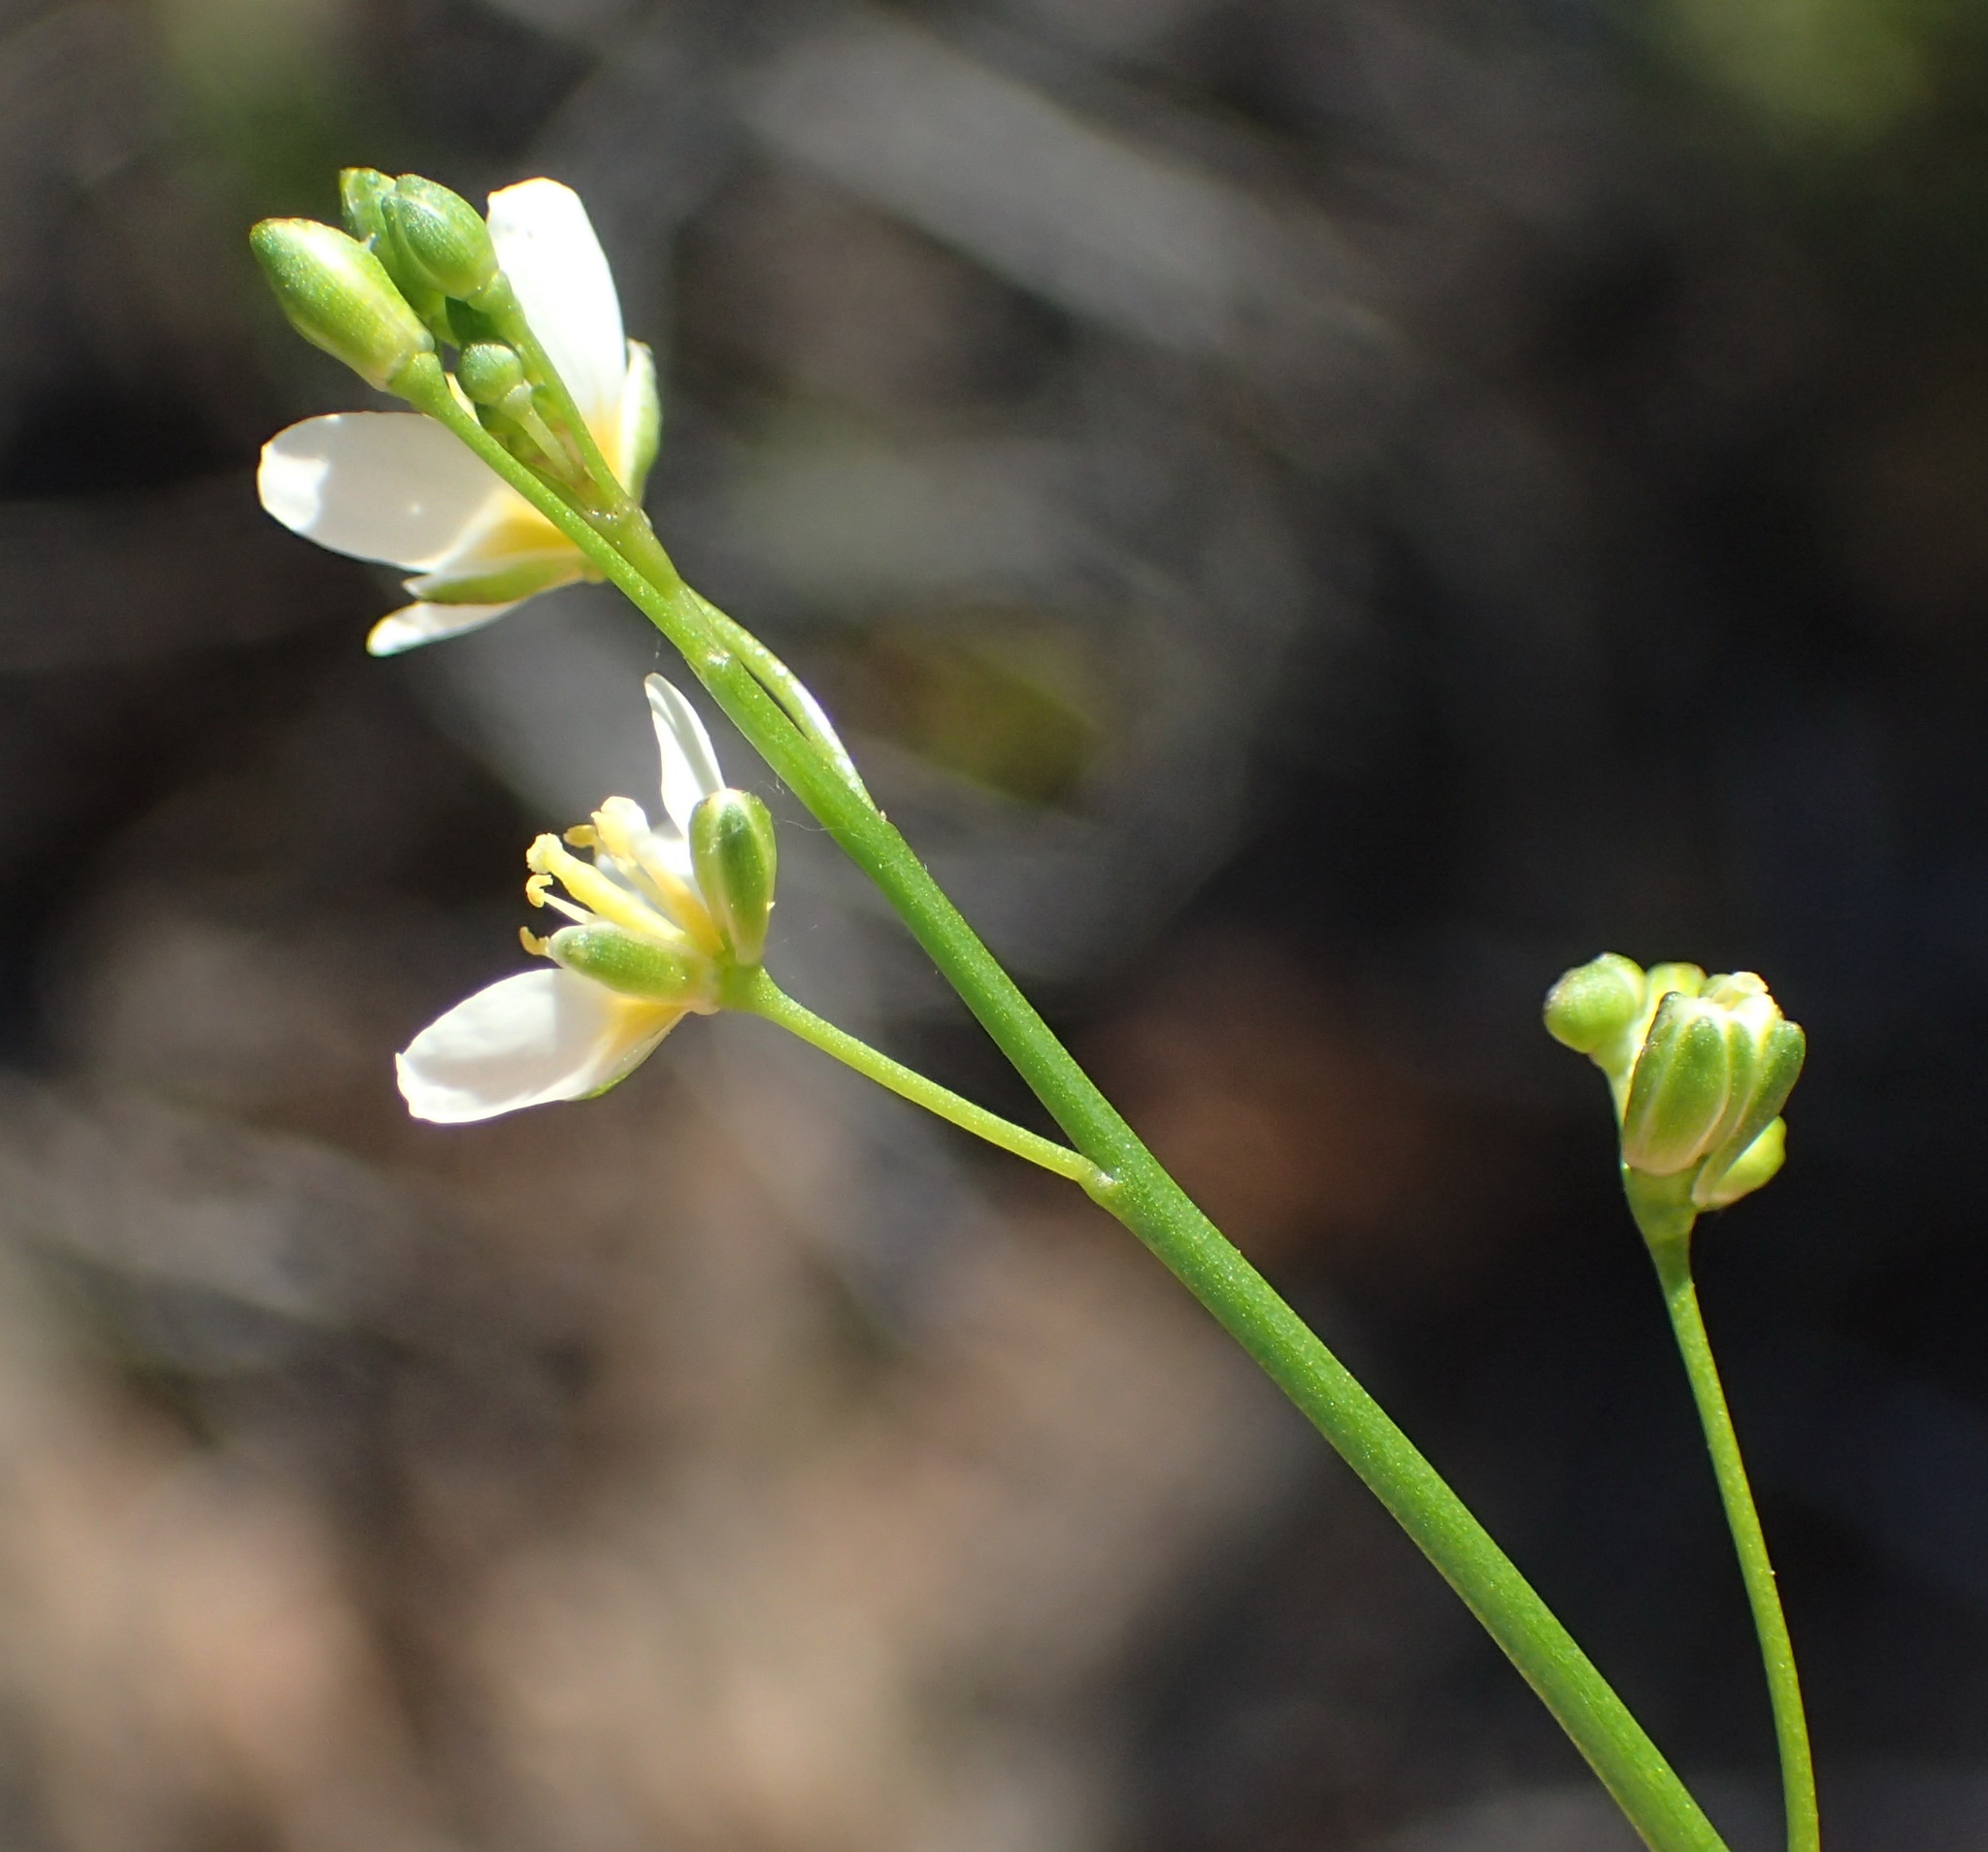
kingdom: Plantae
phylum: Tracheophyta
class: Magnoliopsida
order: Brassicales
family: Brassicaceae
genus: Heliophila
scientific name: Heliophila pendula
